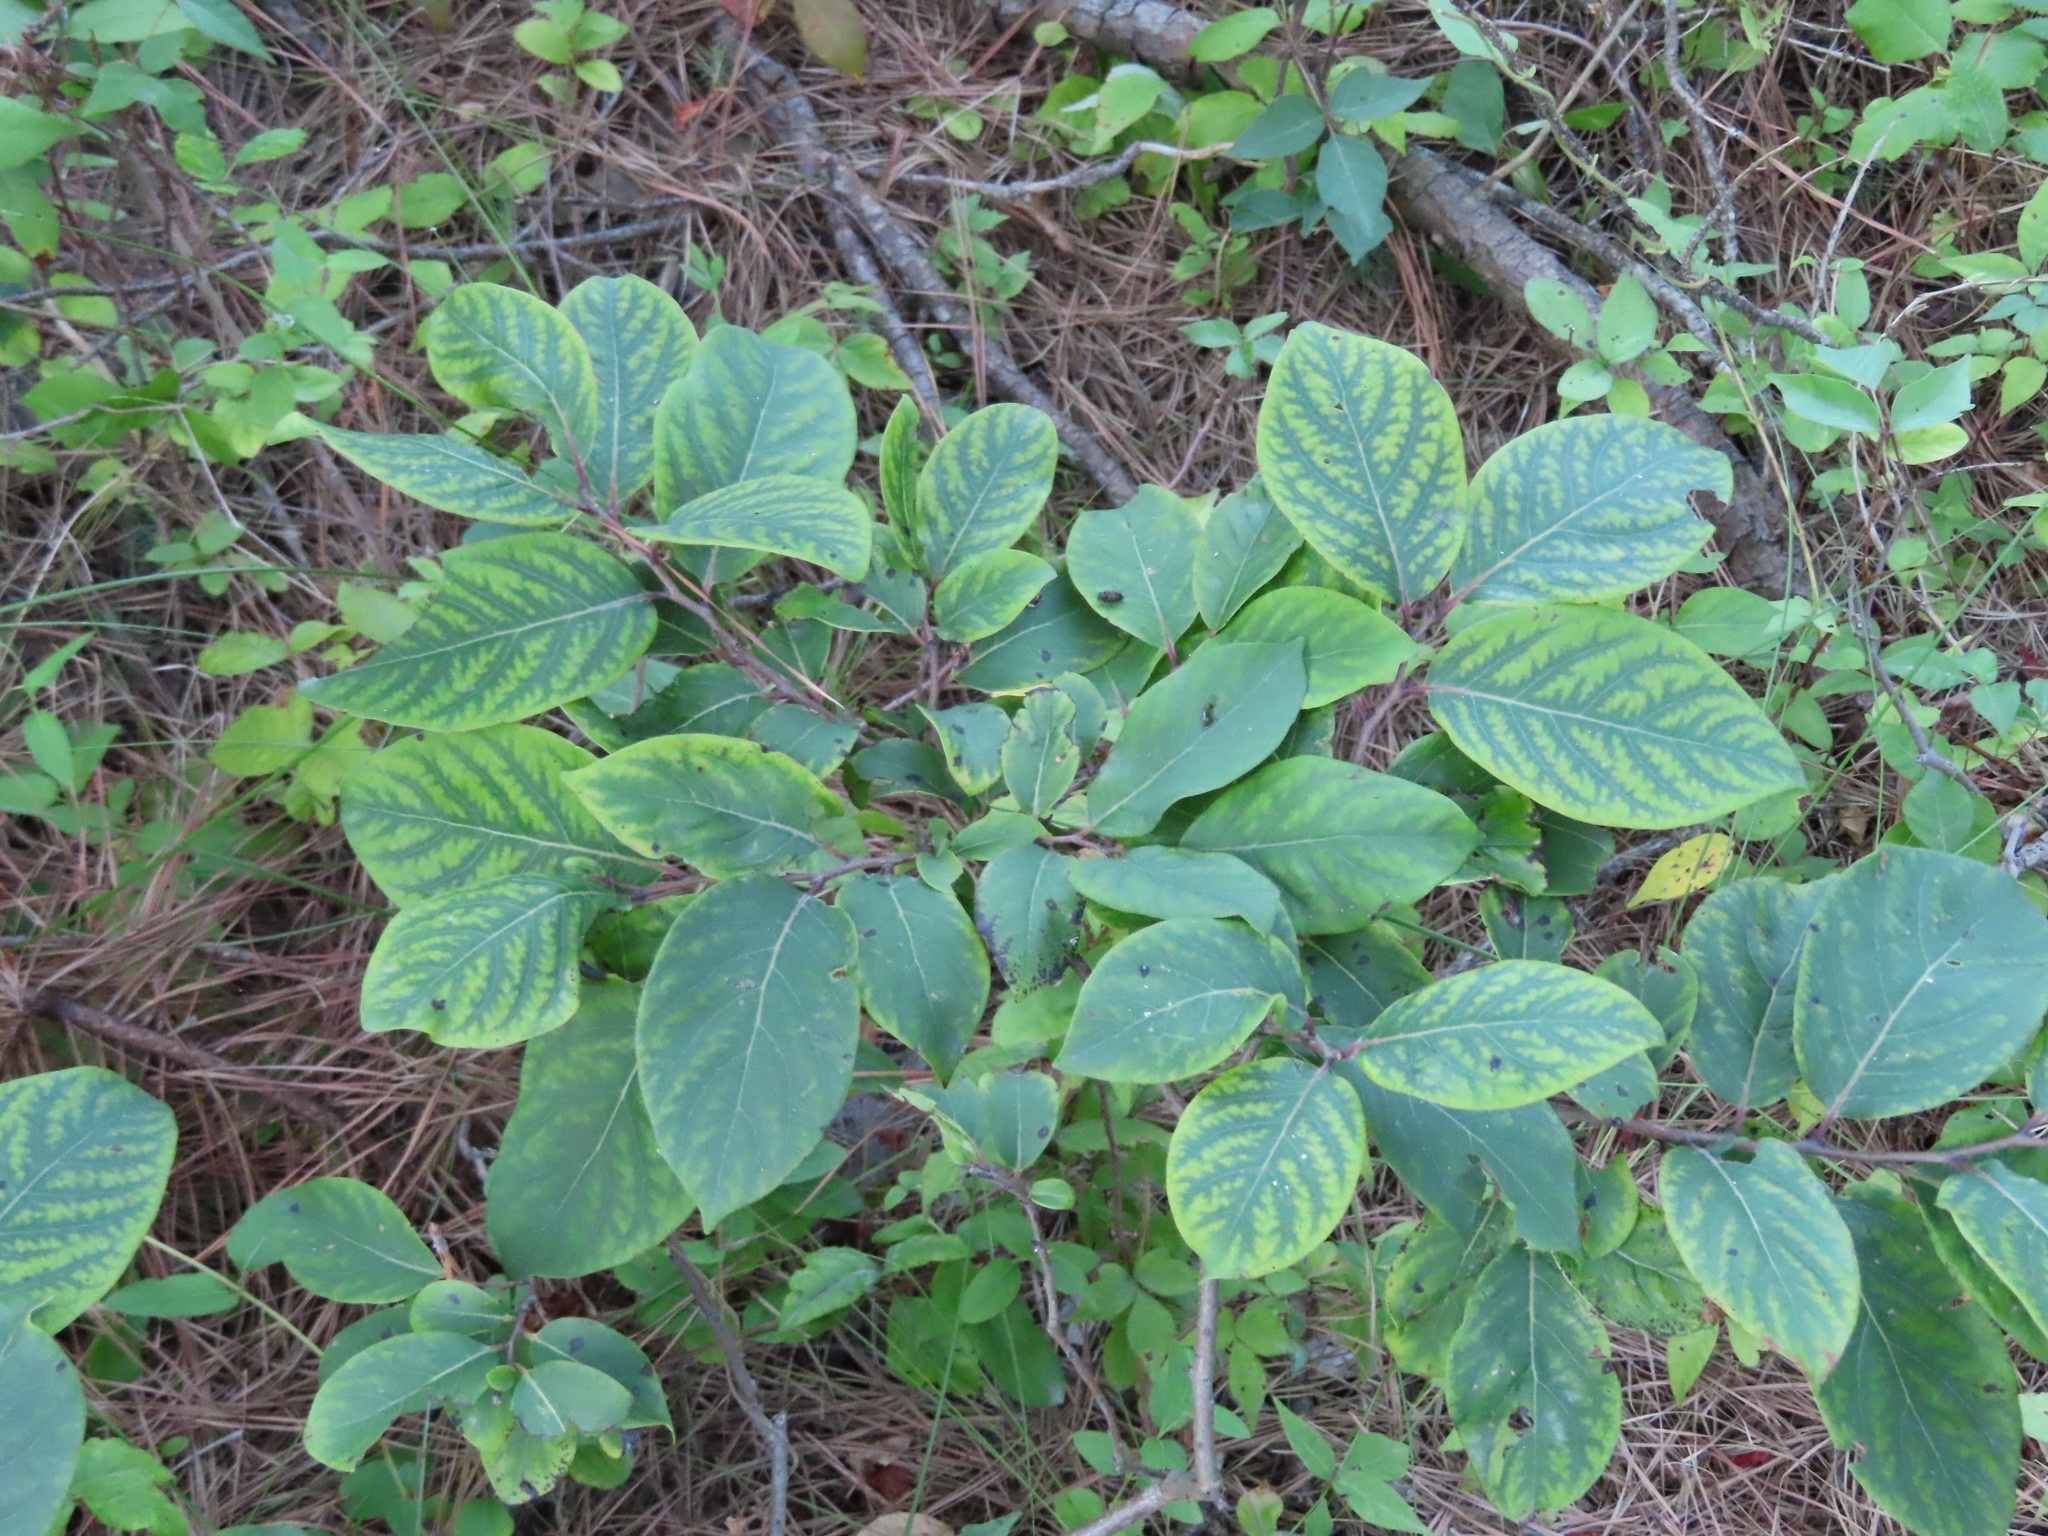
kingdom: Plantae
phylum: Tracheophyta
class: Magnoliopsida
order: Ericales
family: Ebenaceae
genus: Diospyros
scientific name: Diospyros virginiana
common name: Persimmon
